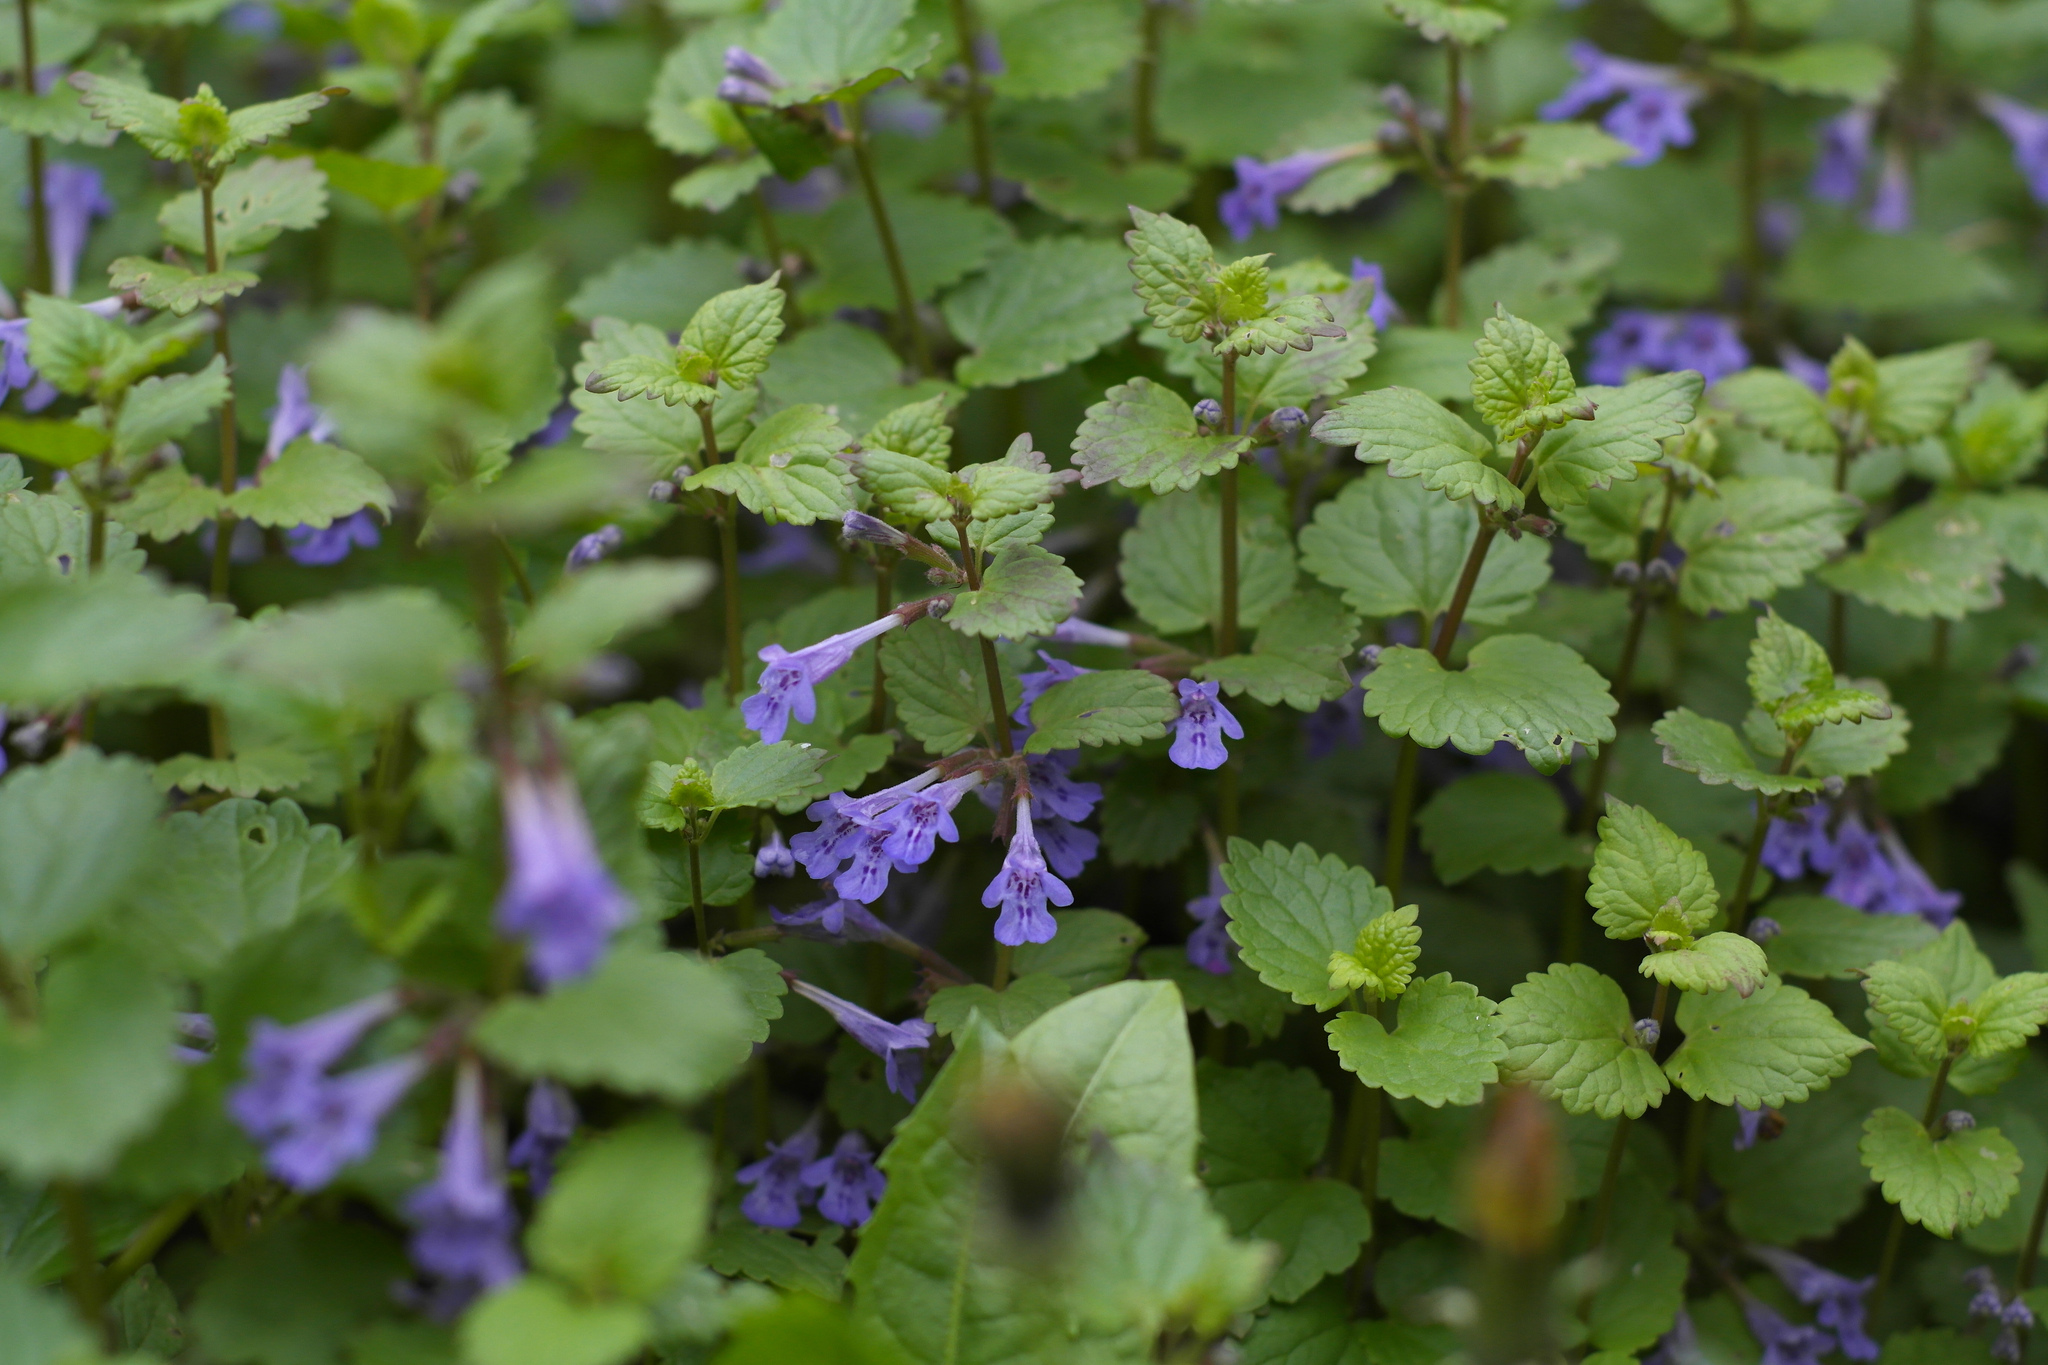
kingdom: Plantae
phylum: Tracheophyta
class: Magnoliopsida
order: Lamiales
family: Lamiaceae
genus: Glechoma
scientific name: Glechoma hederacea
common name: Ground ivy
